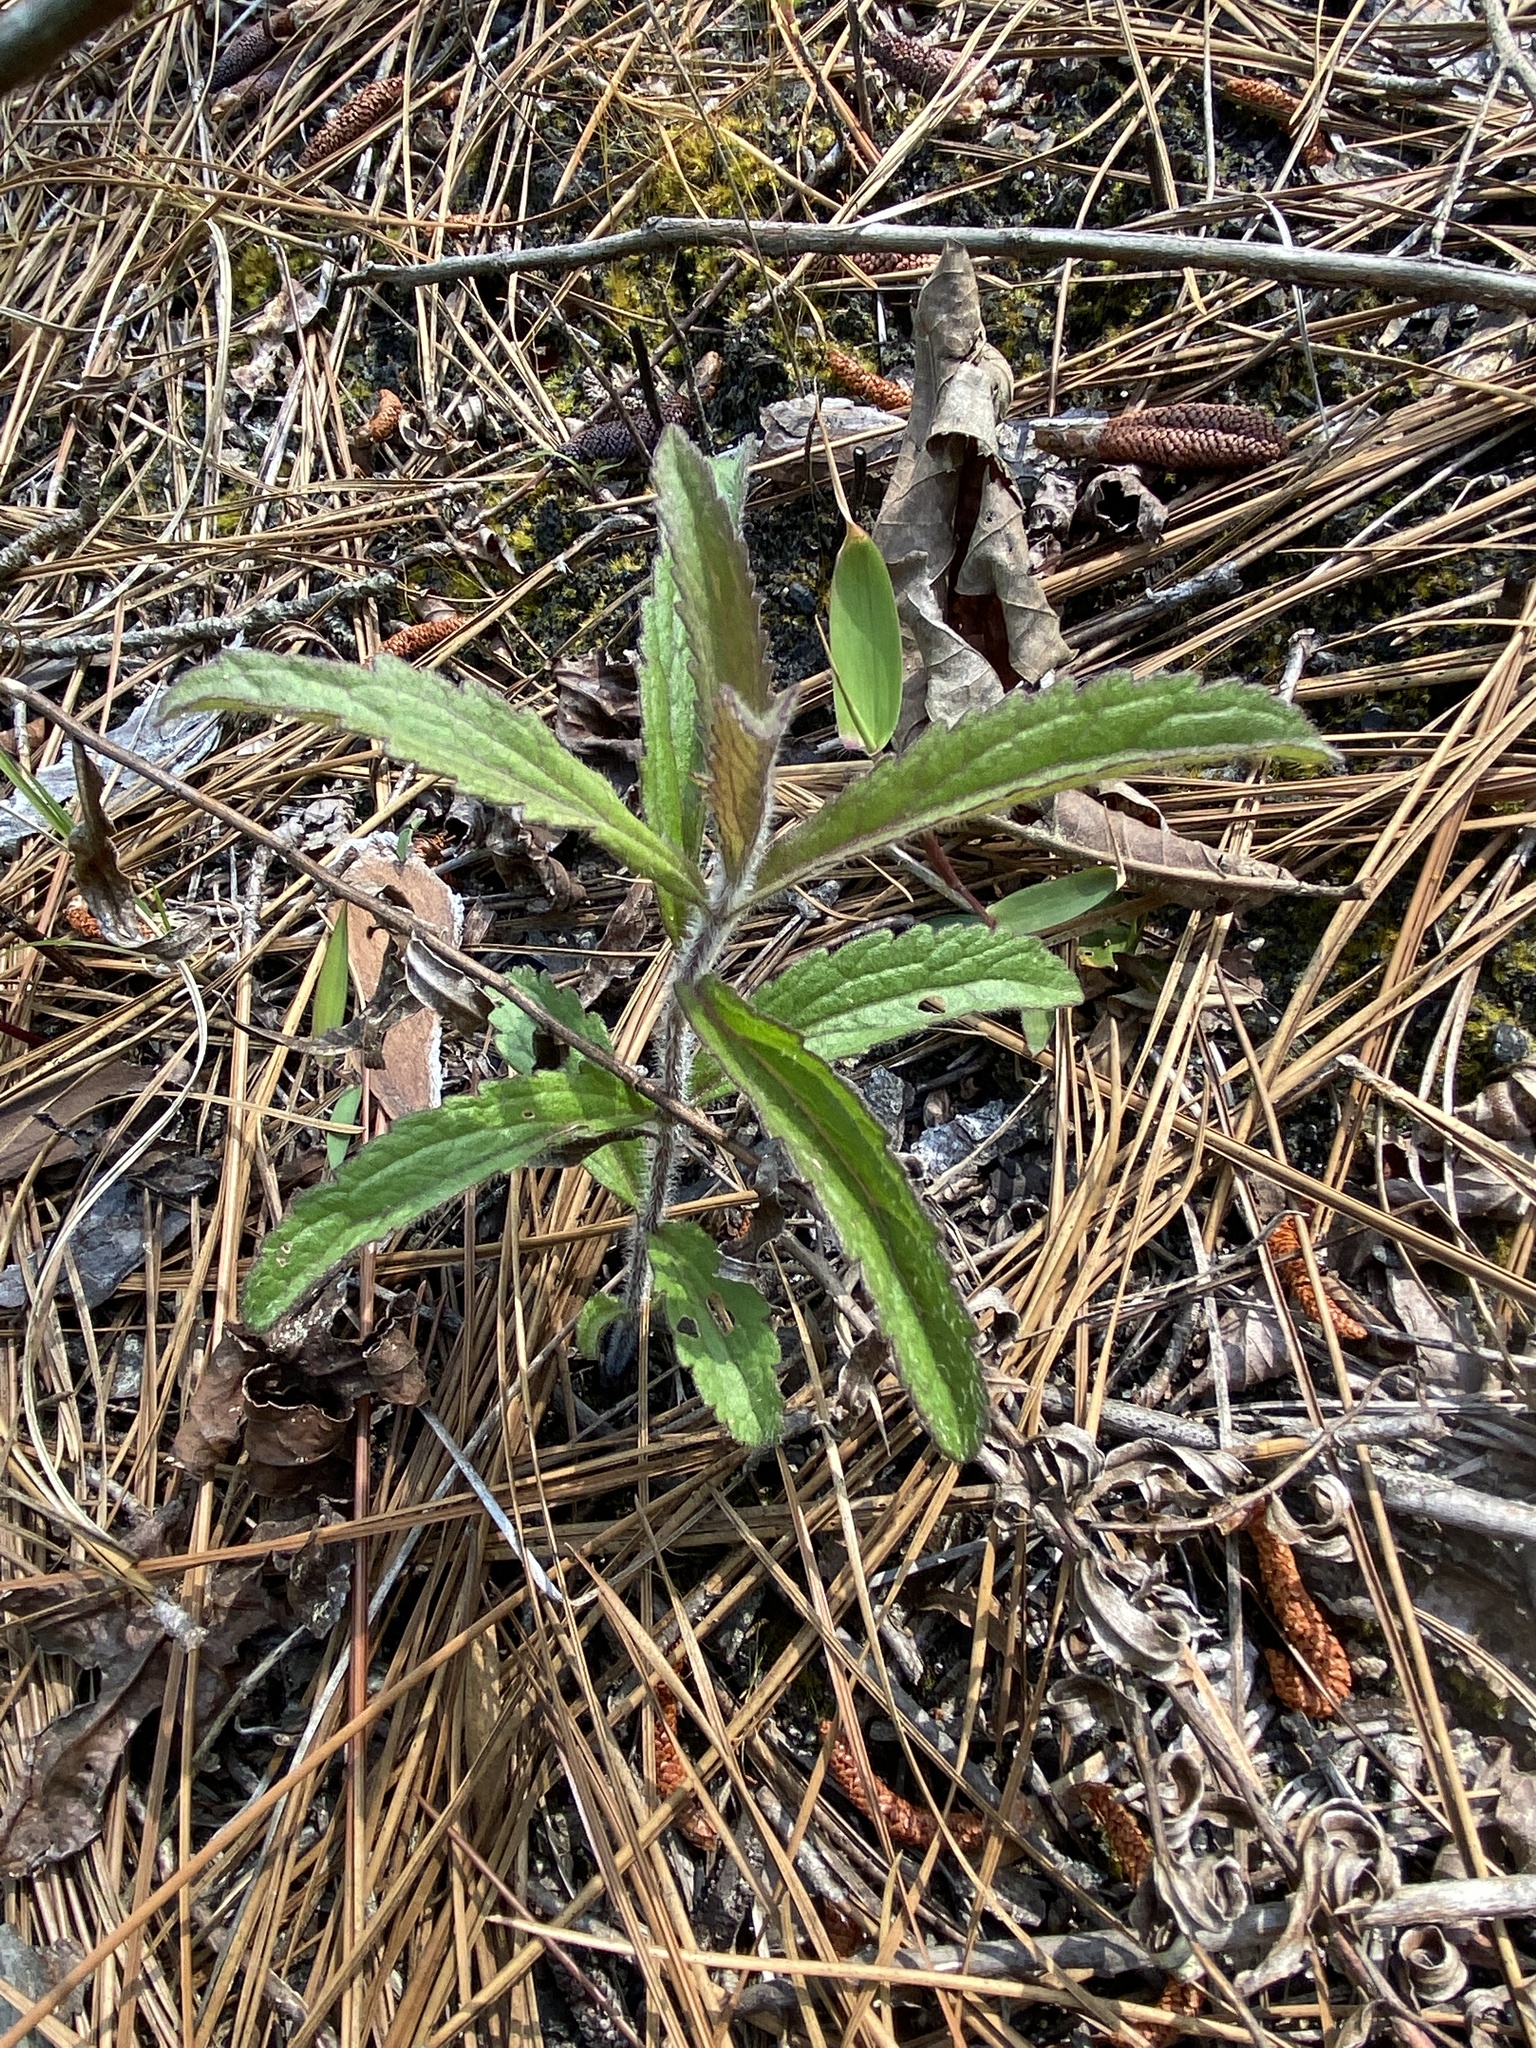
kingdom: Plantae
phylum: Tracheophyta
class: Magnoliopsida
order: Asterales
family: Asteraceae
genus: Eupatorium
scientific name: Eupatorium album
